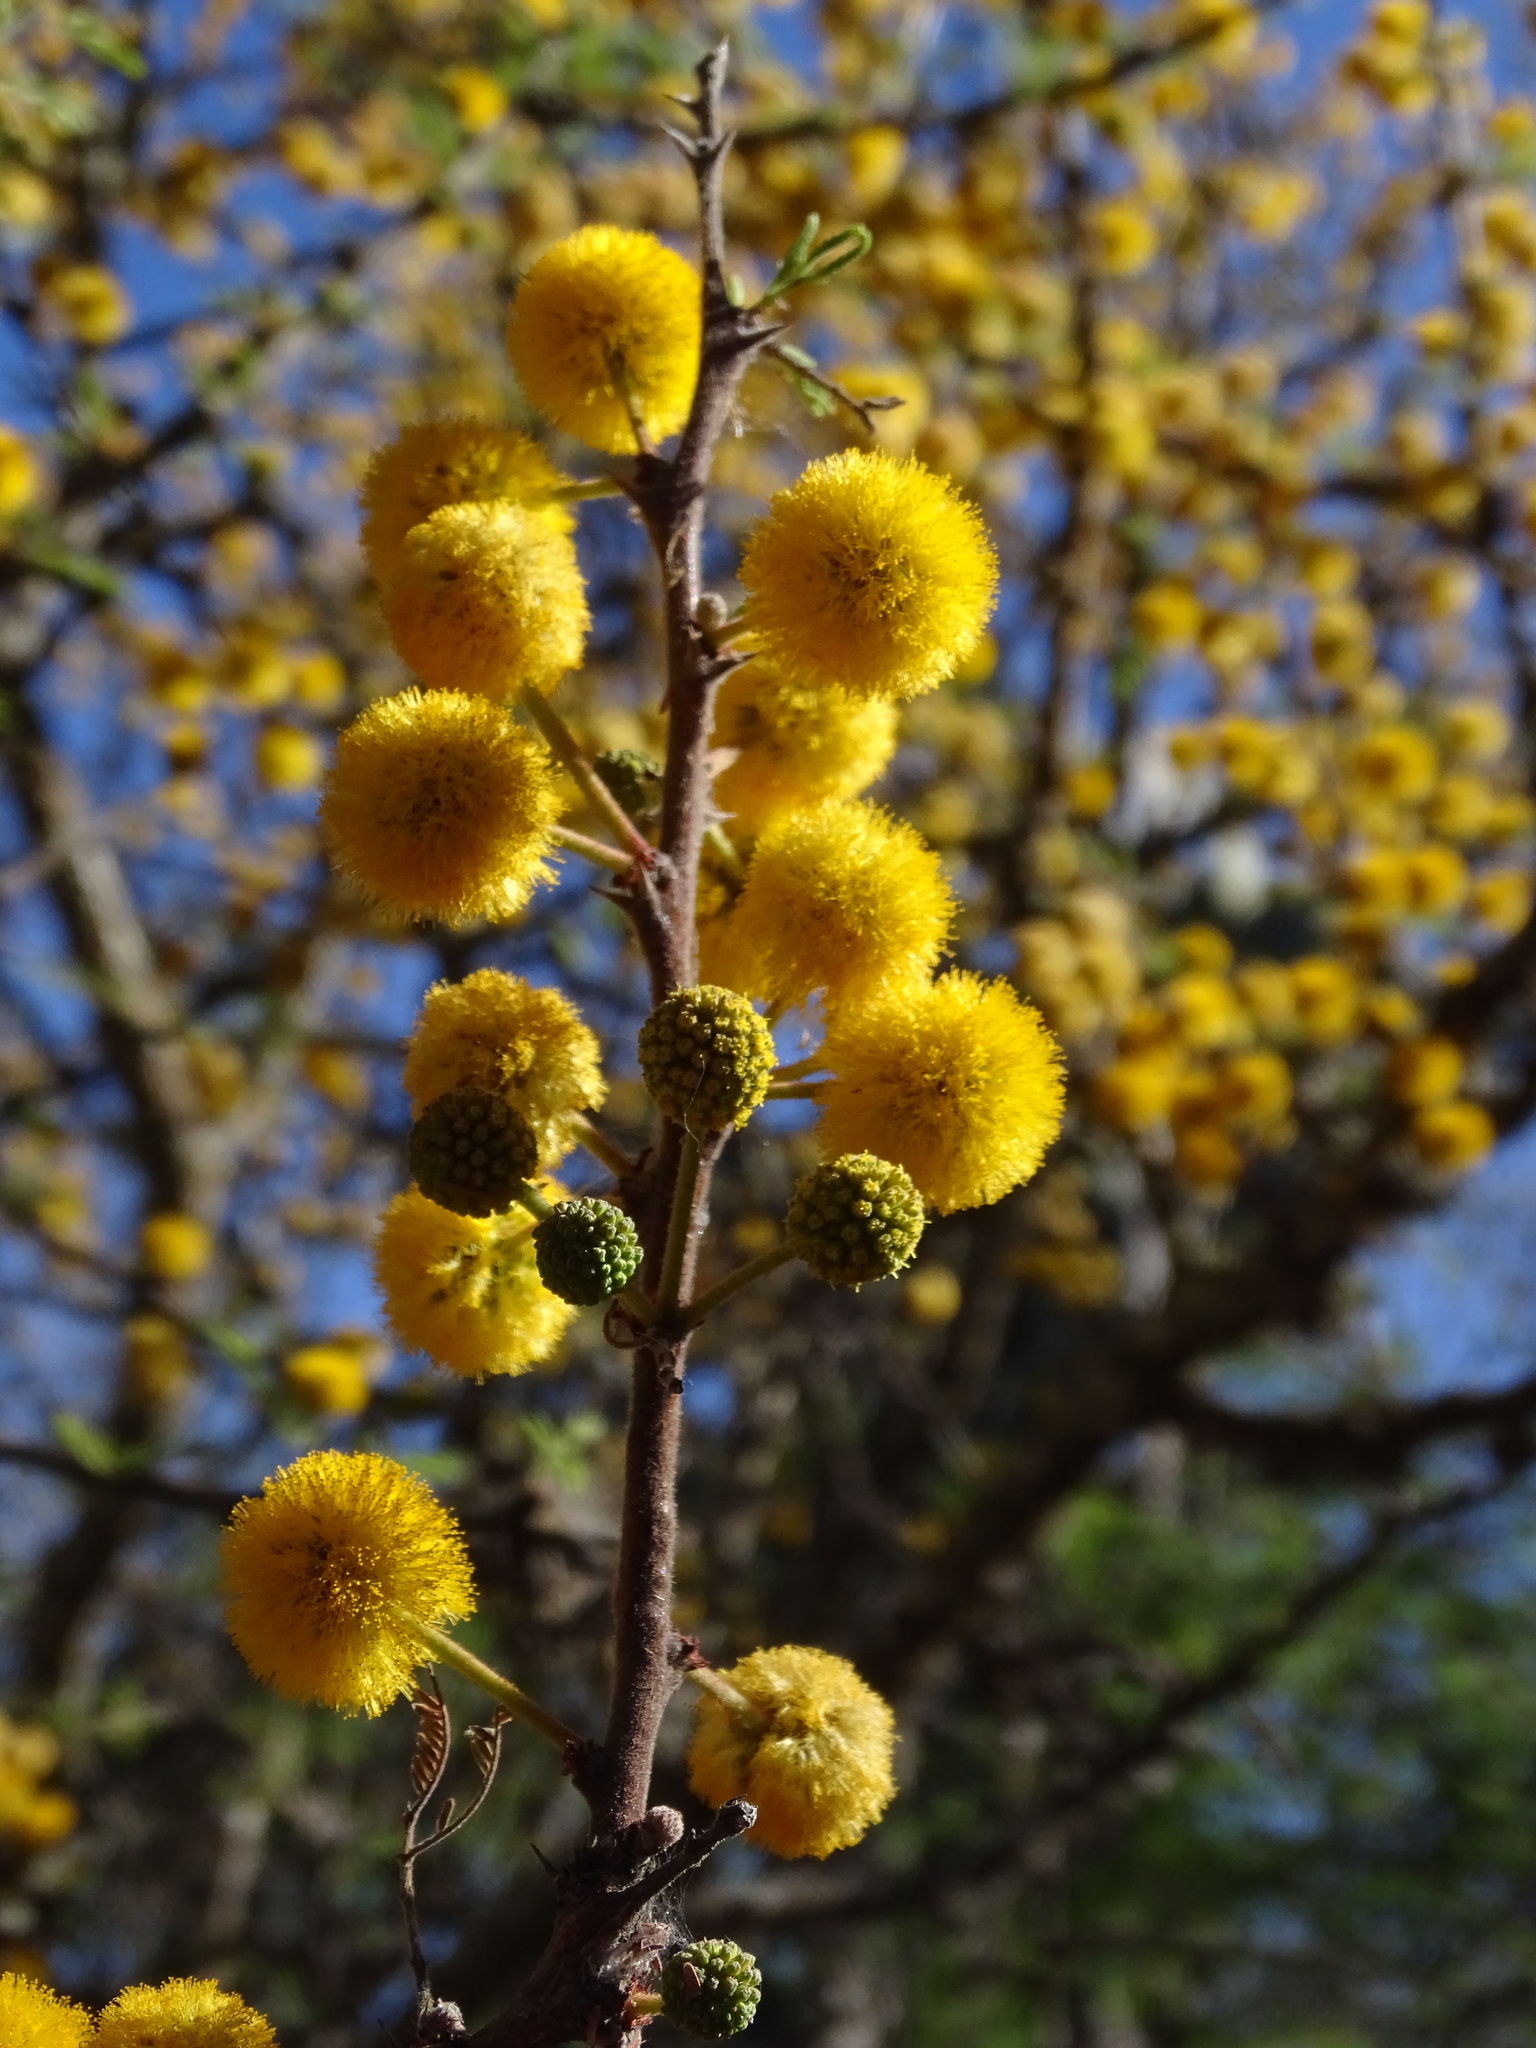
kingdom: Plantae
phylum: Tracheophyta
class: Magnoliopsida
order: Fabales
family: Fabaceae
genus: Vachellia
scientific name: Vachellia constricta
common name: Mescat acacia
